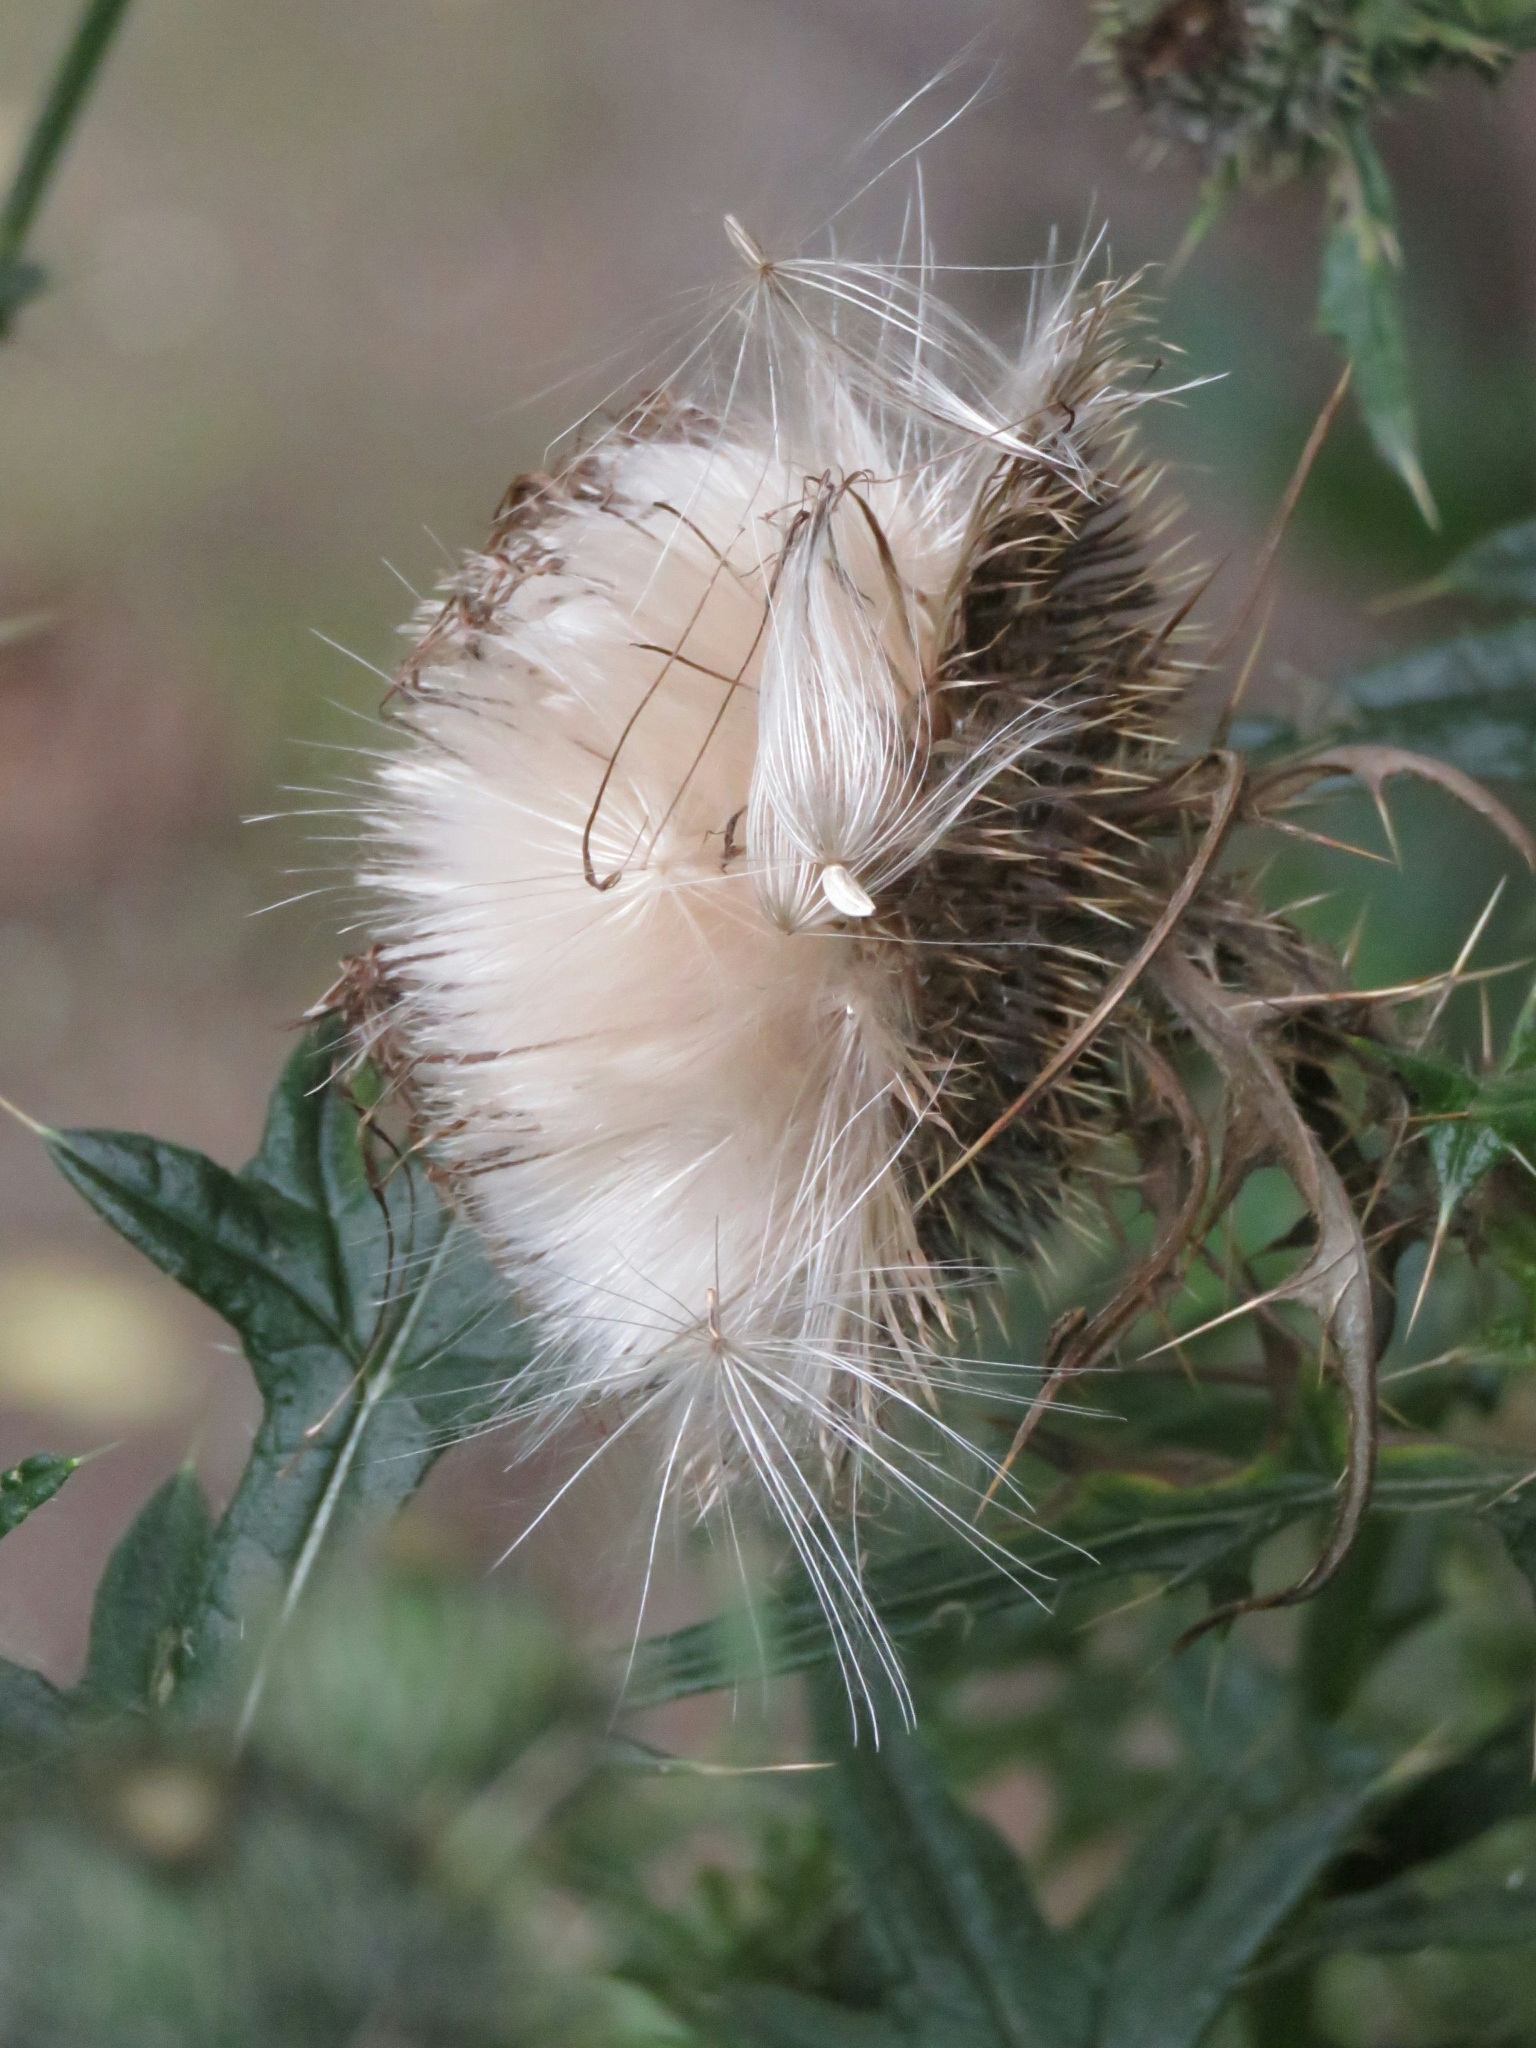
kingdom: Plantae
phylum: Tracheophyta
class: Magnoliopsida
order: Asterales
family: Asteraceae
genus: Cirsium
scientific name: Cirsium vulgare
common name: Bull thistle
